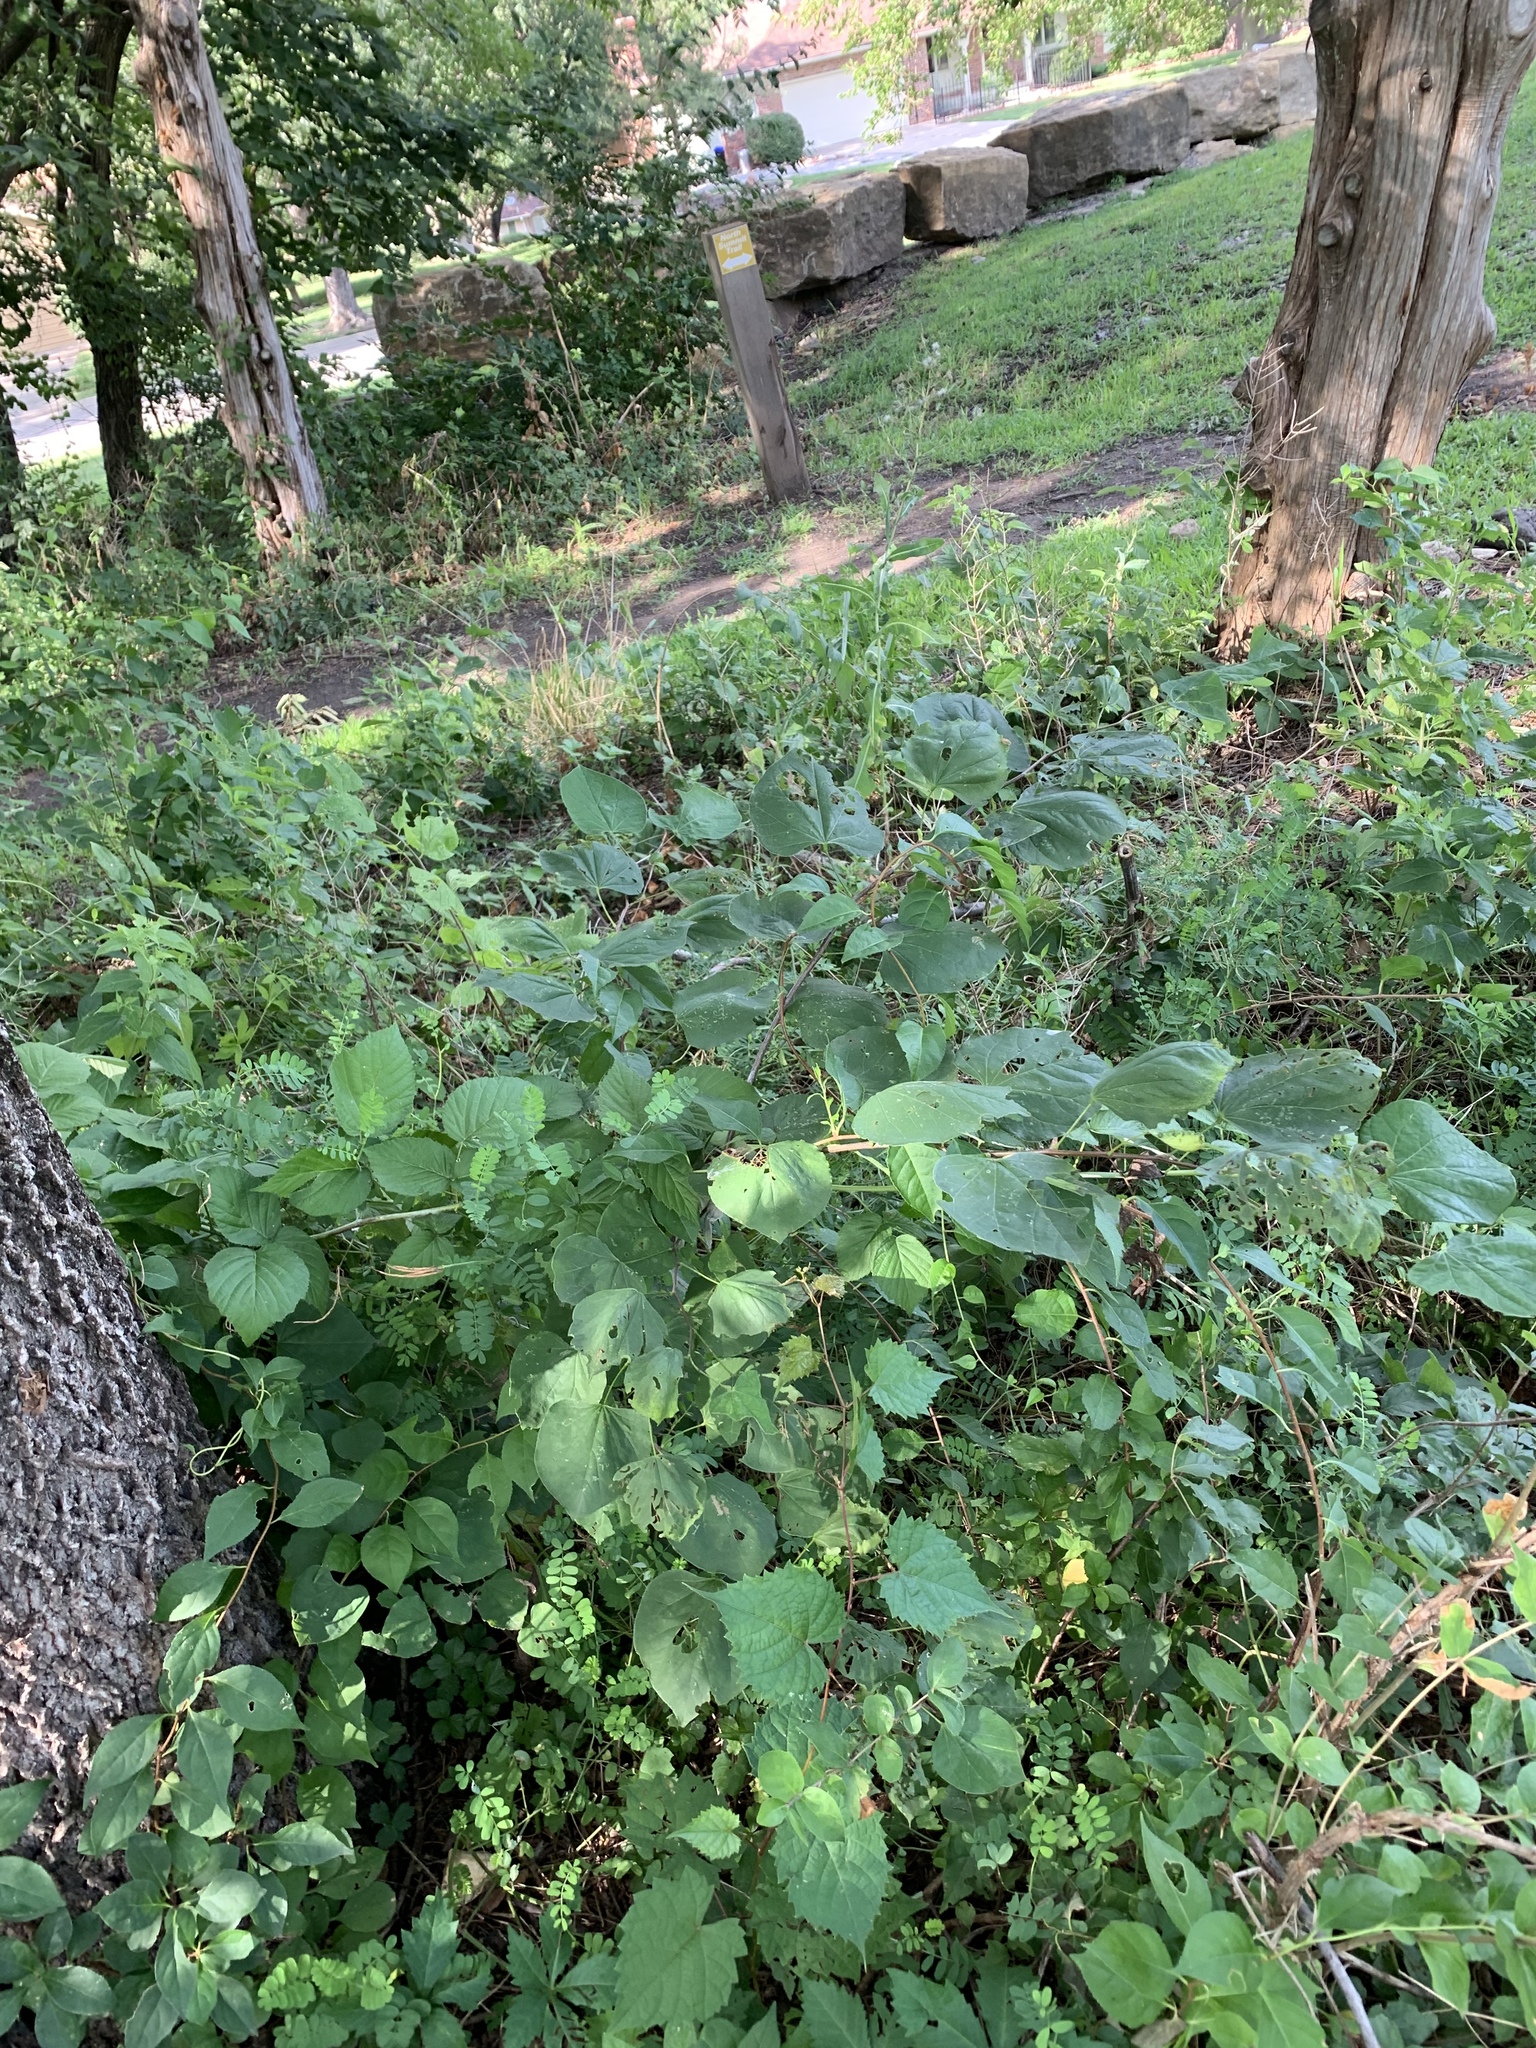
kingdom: Plantae
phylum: Tracheophyta
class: Magnoliopsida
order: Fabales
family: Fabaceae
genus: Cercis
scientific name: Cercis canadensis
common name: Eastern redbud
